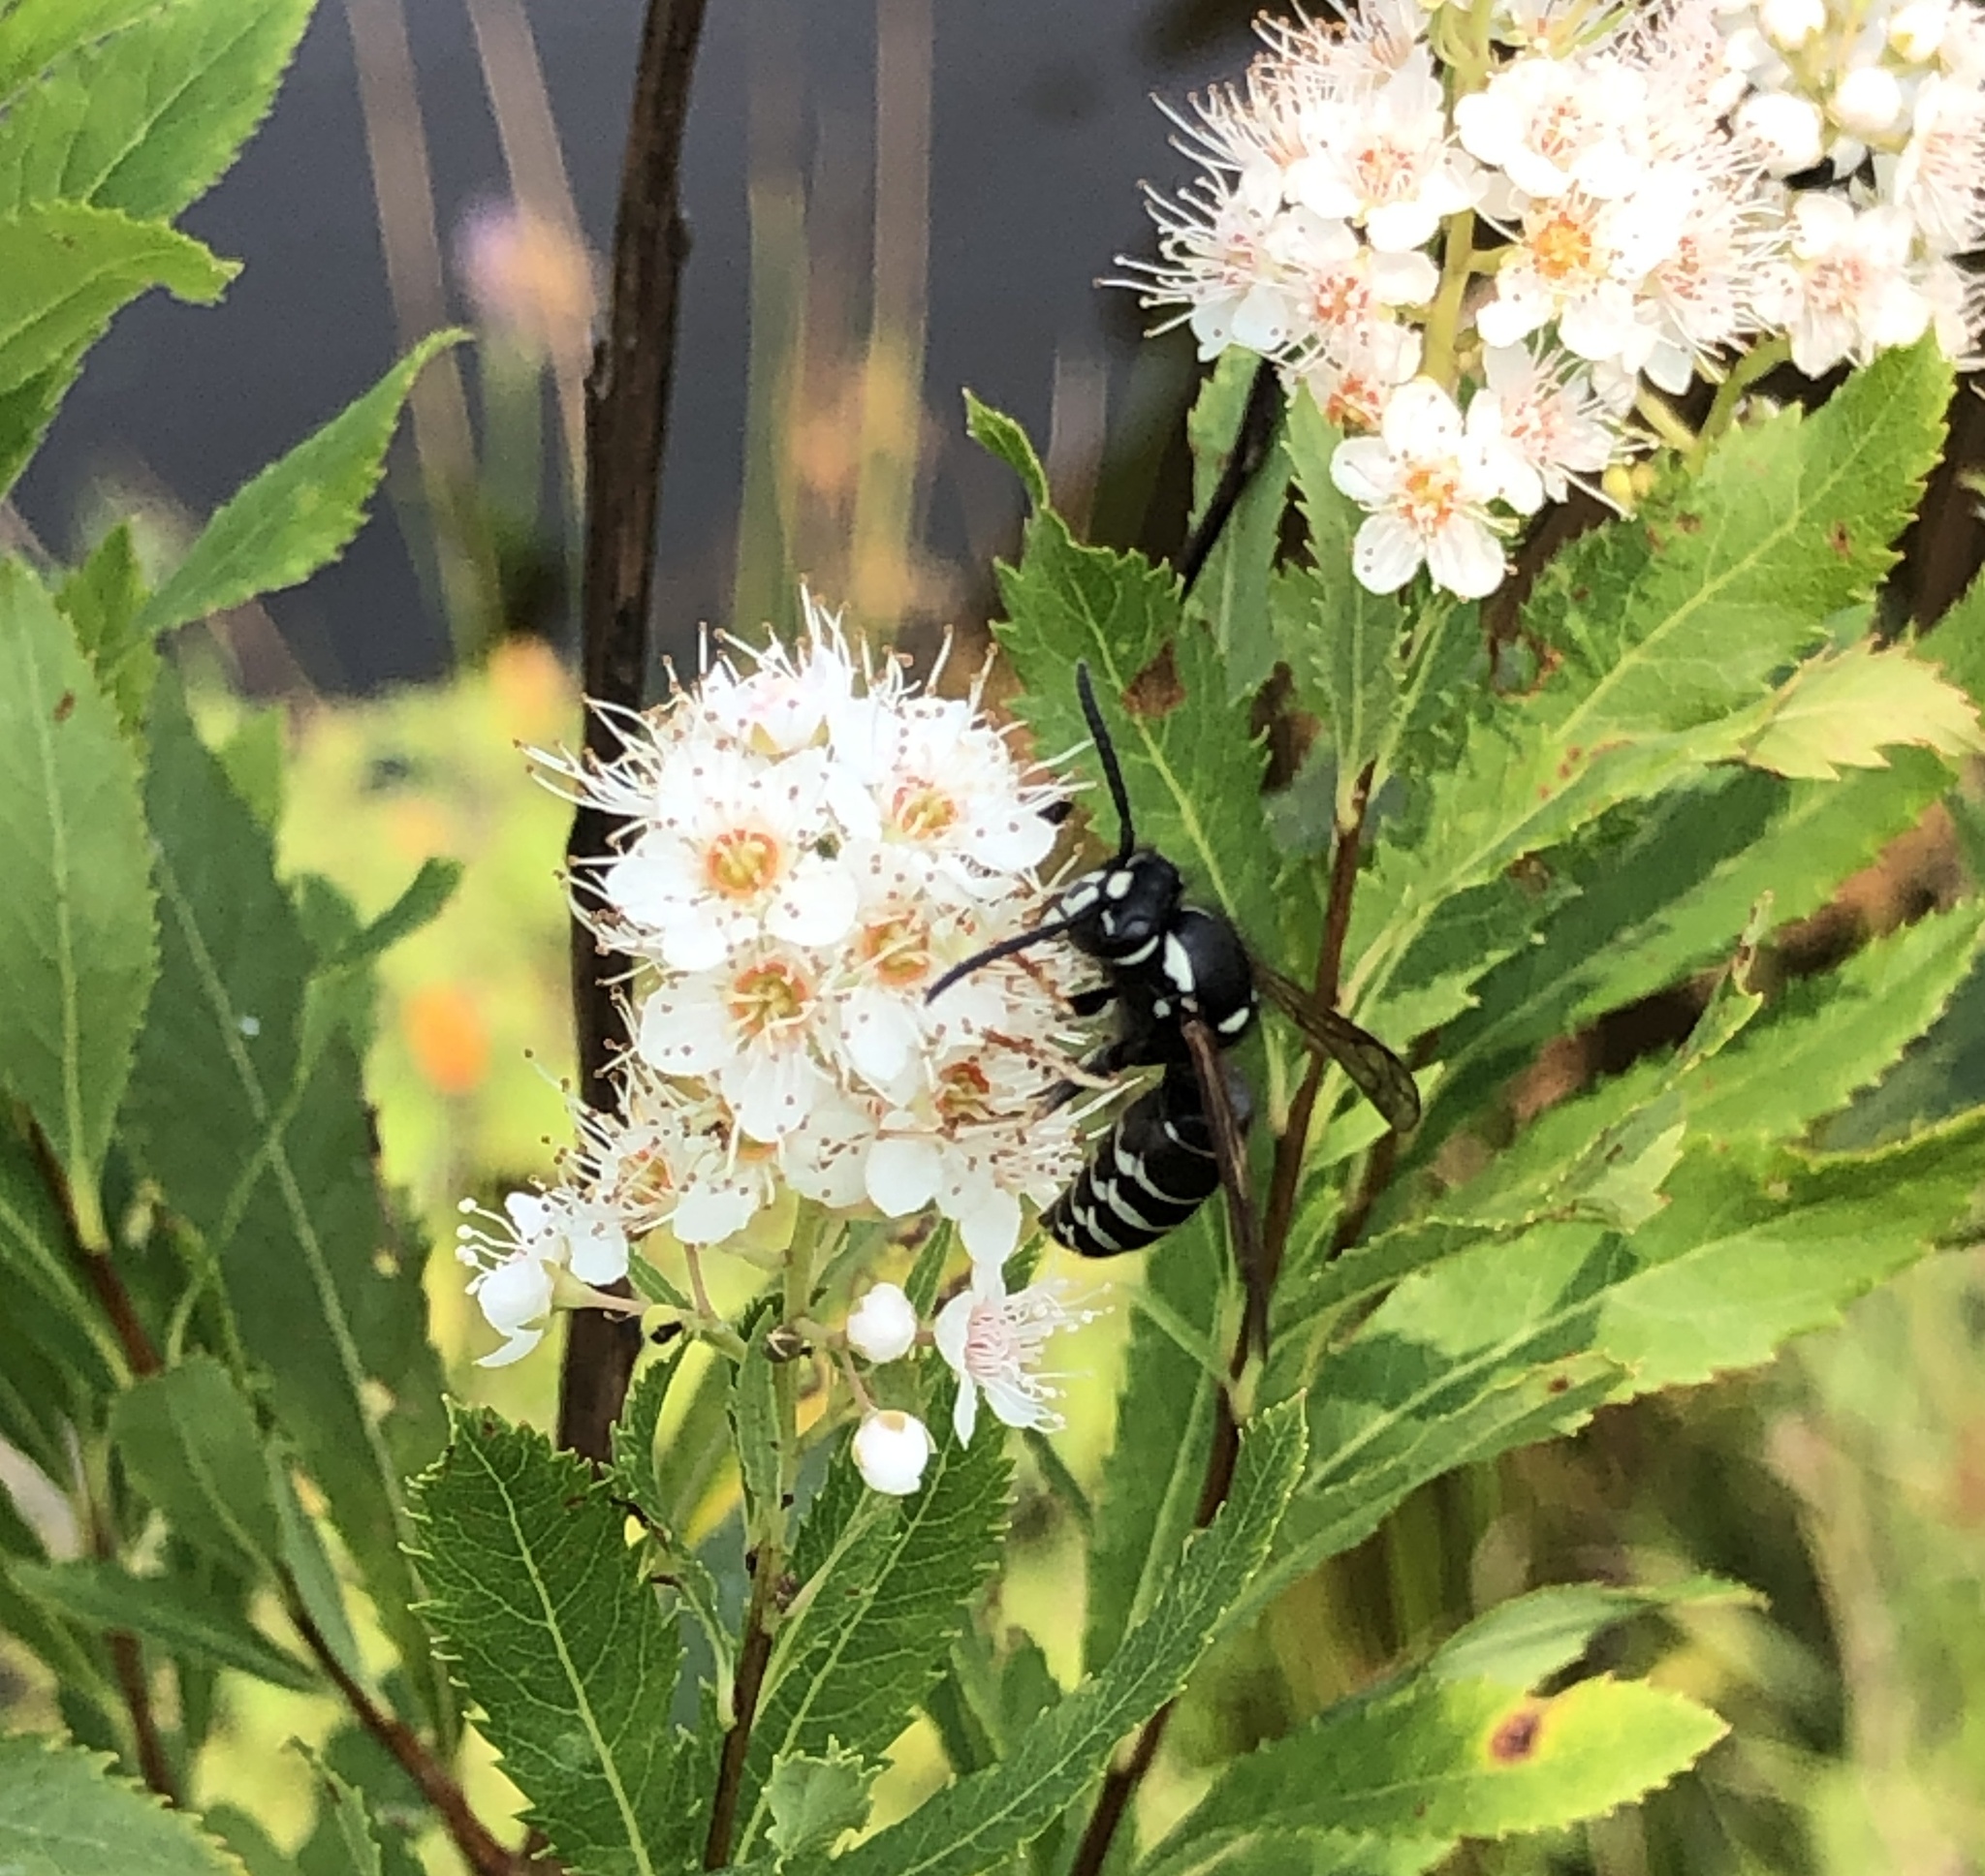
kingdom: Animalia
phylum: Arthropoda
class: Insecta
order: Hymenoptera
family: Vespidae
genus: Vespula
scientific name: Vespula consobrina
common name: Blackjacket
